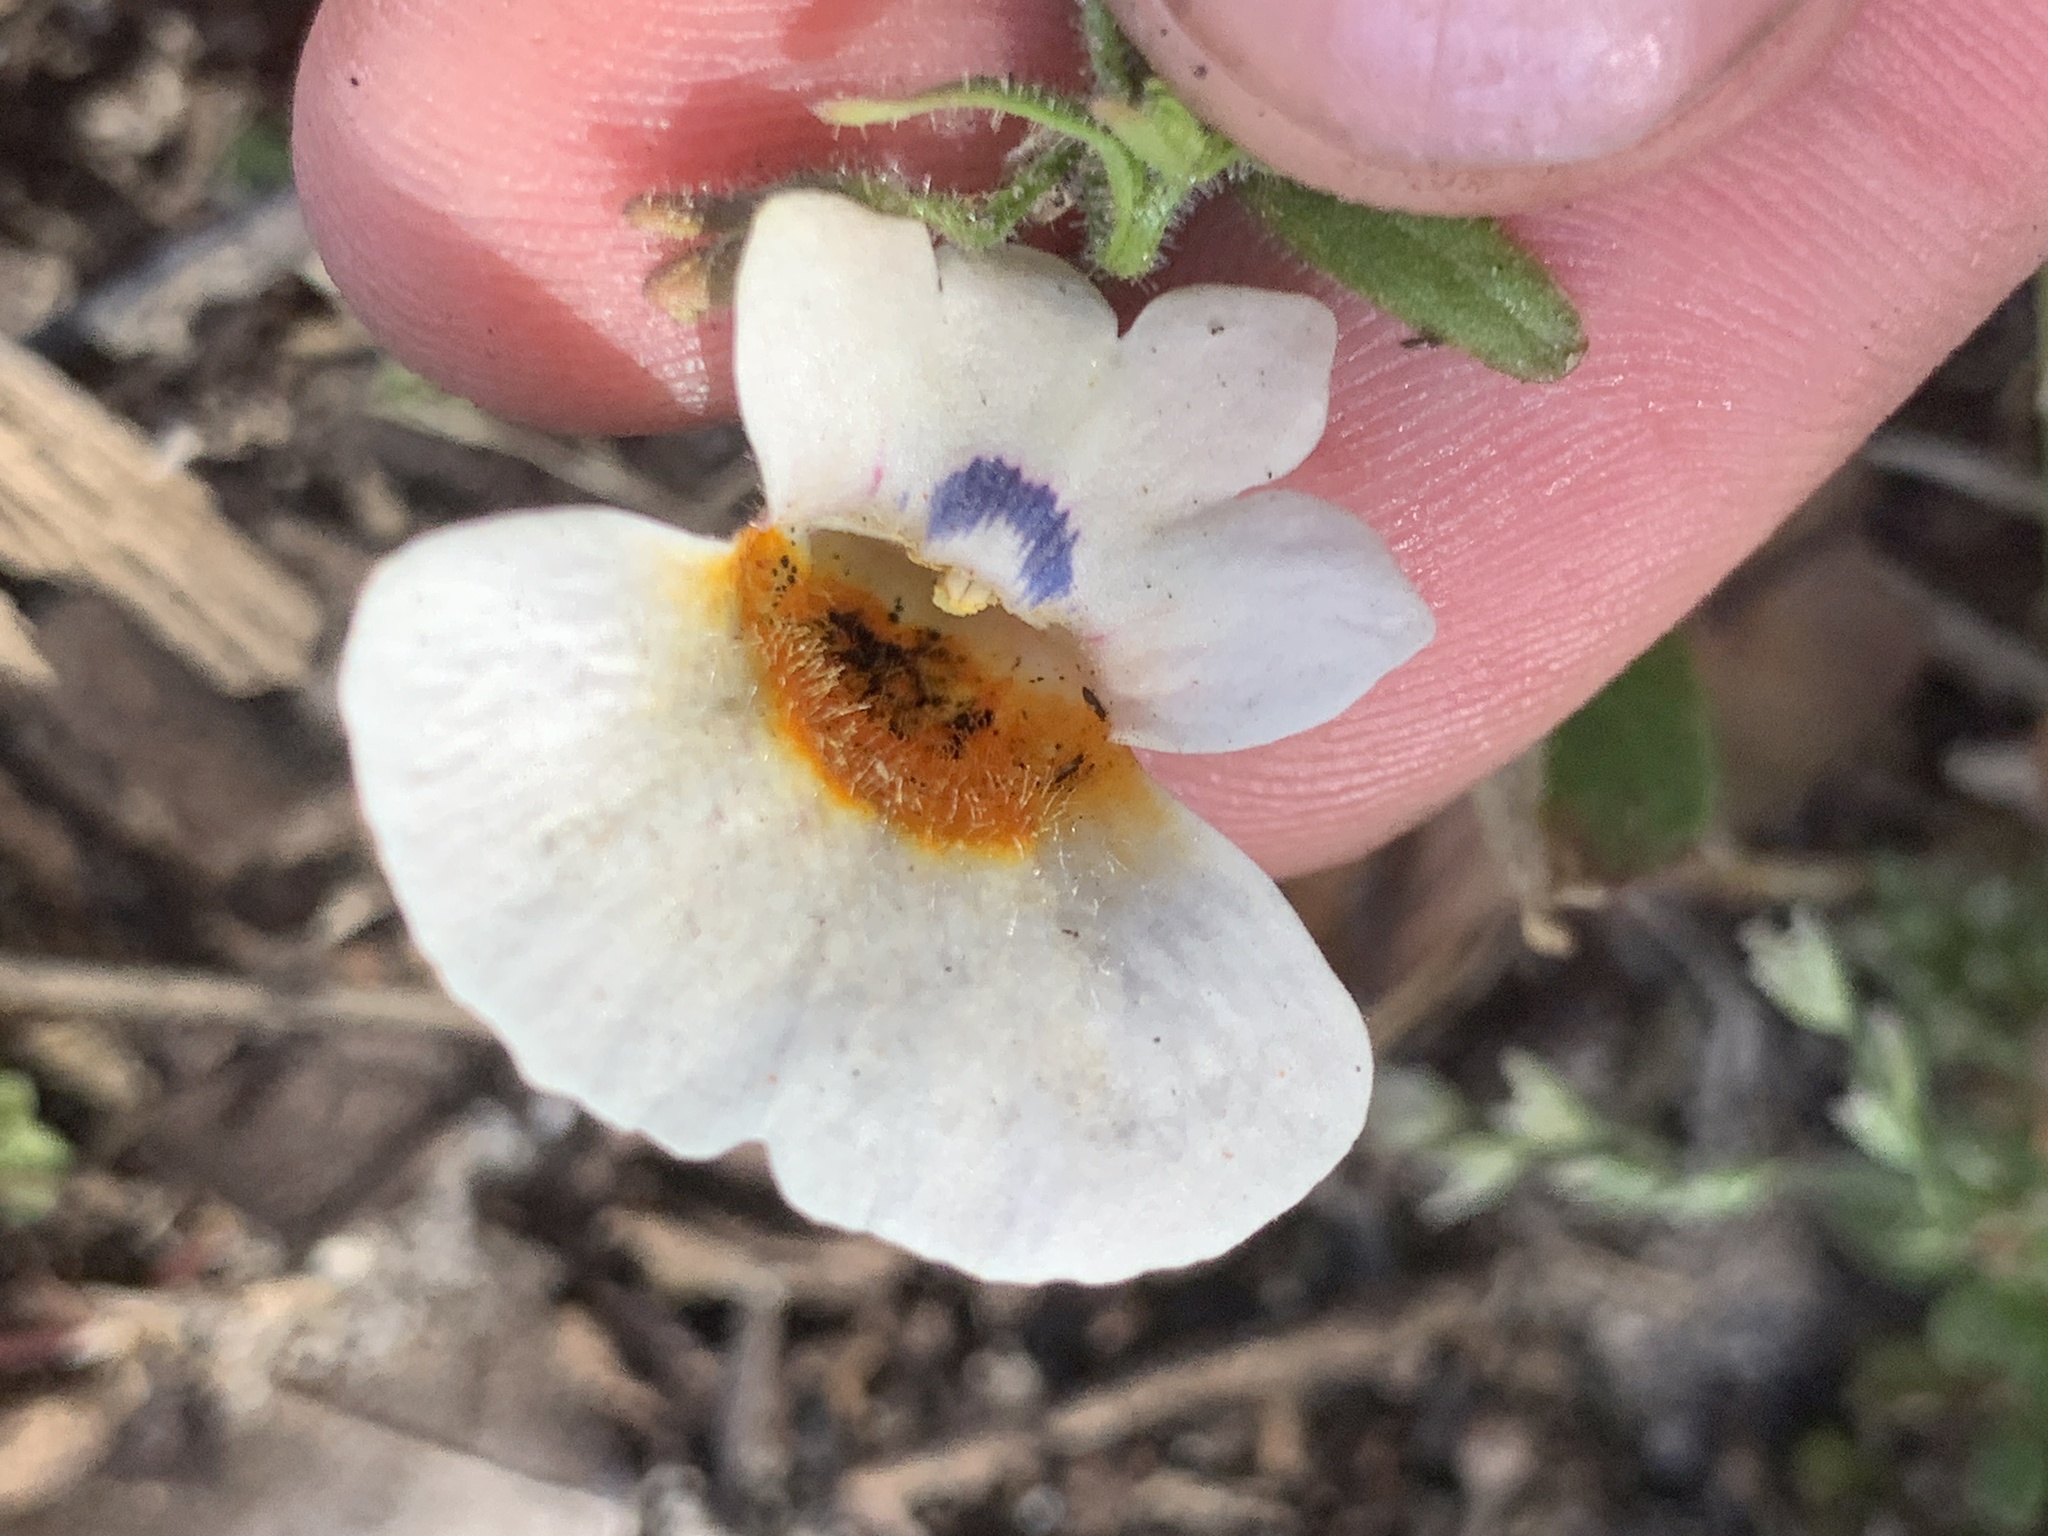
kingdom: Plantae
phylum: Tracheophyta
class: Magnoliopsida
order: Lamiales
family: Scrophulariaceae
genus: Nemesia
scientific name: Nemesia strumosa
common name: Cape-jewels
